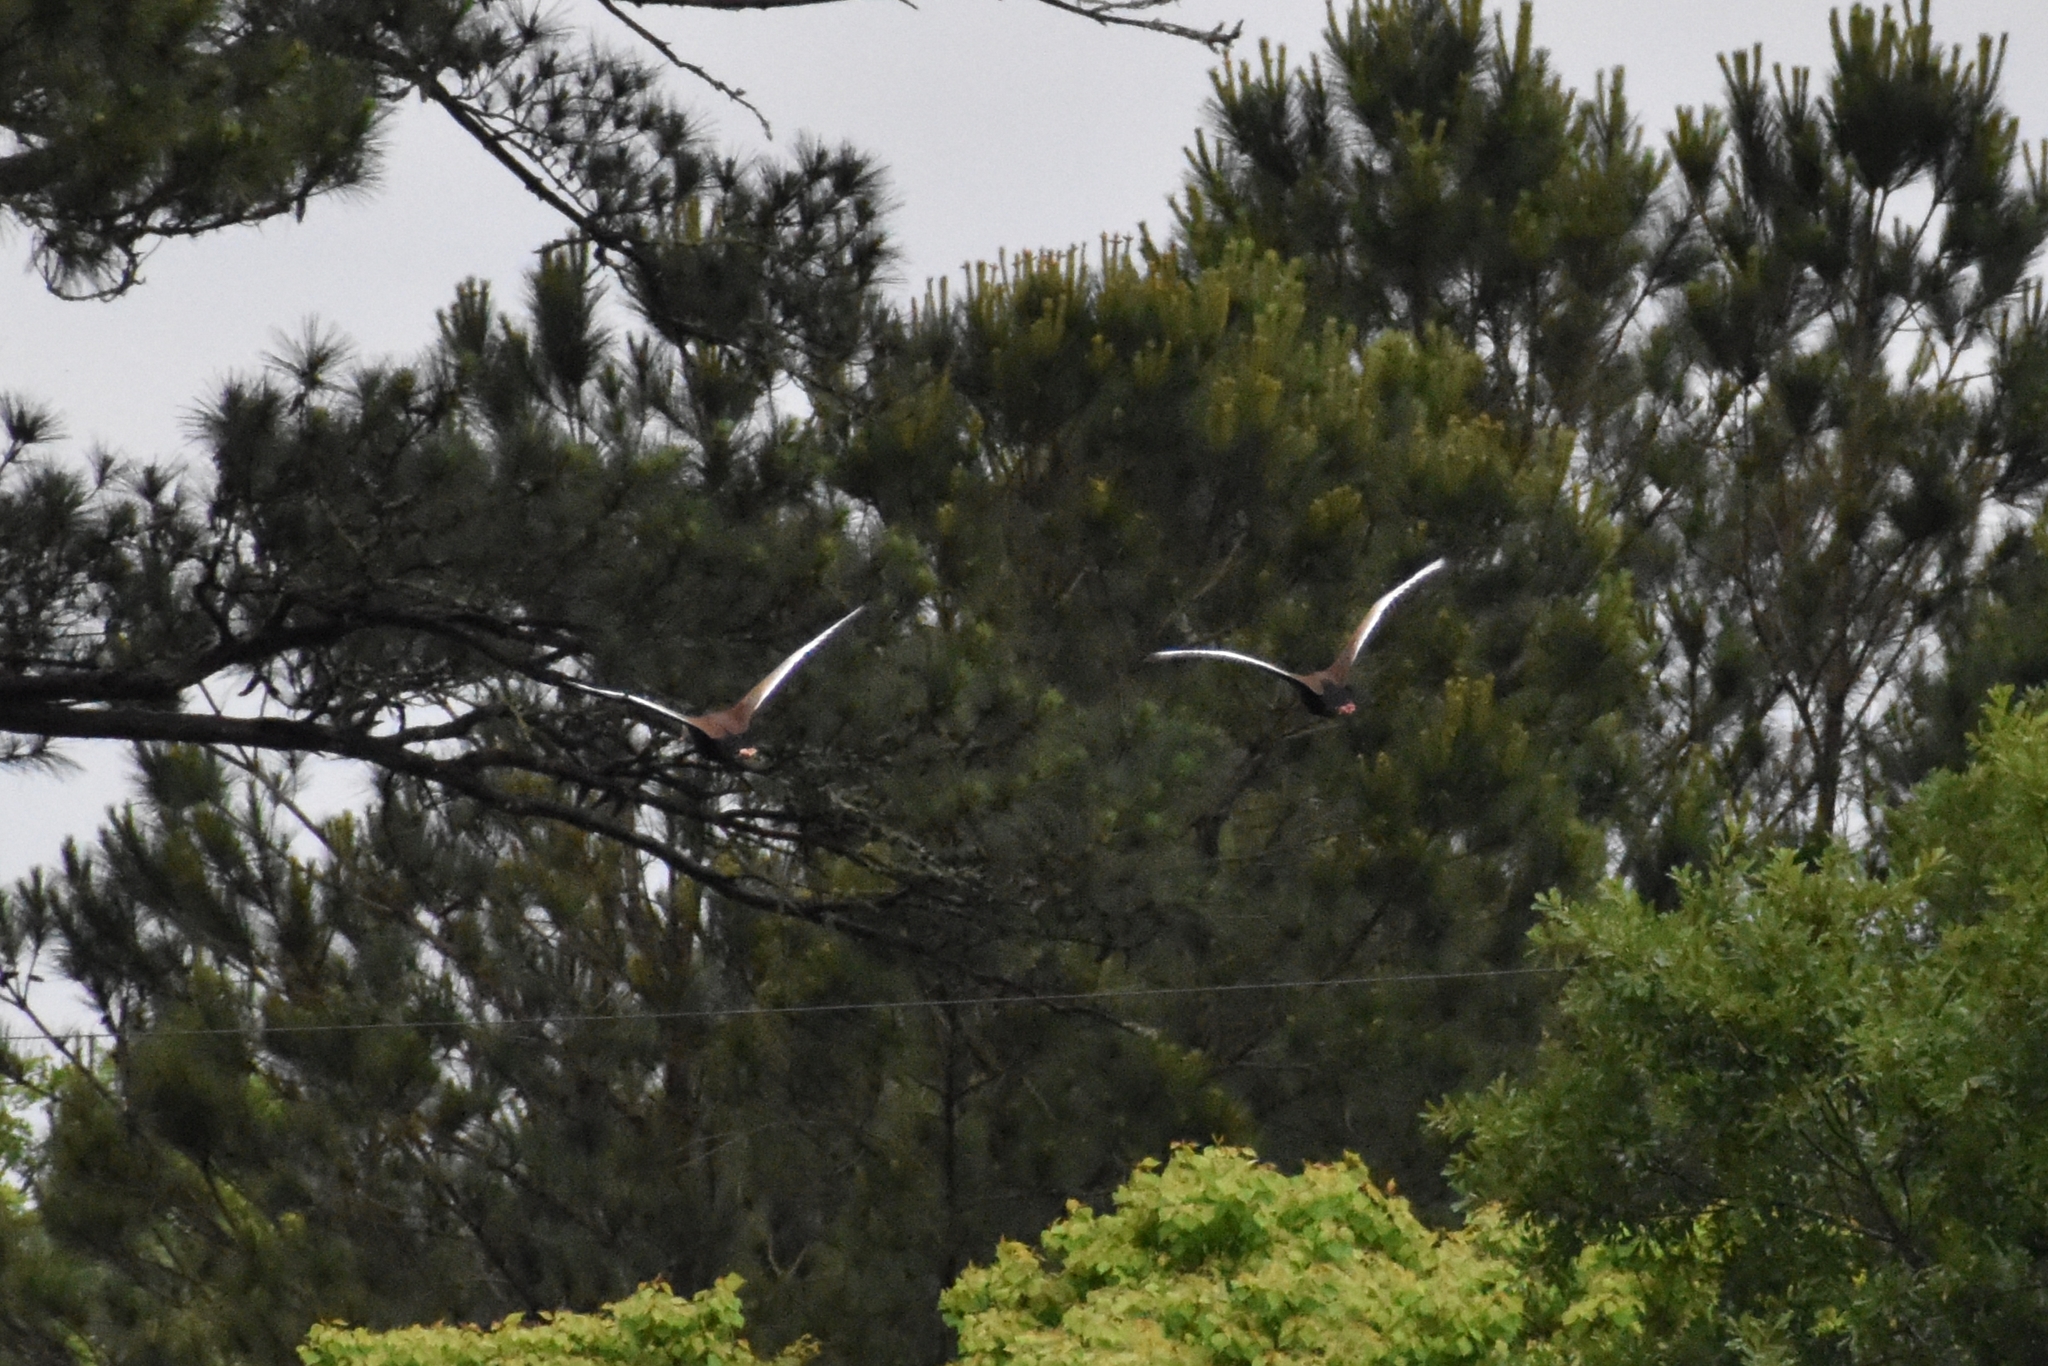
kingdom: Animalia
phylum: Chordata
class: Aves
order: Anseriformes
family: Anatidae
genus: Dendrocygna
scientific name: Dendrocygna autumnalis
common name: Black-bellied whistling duck
